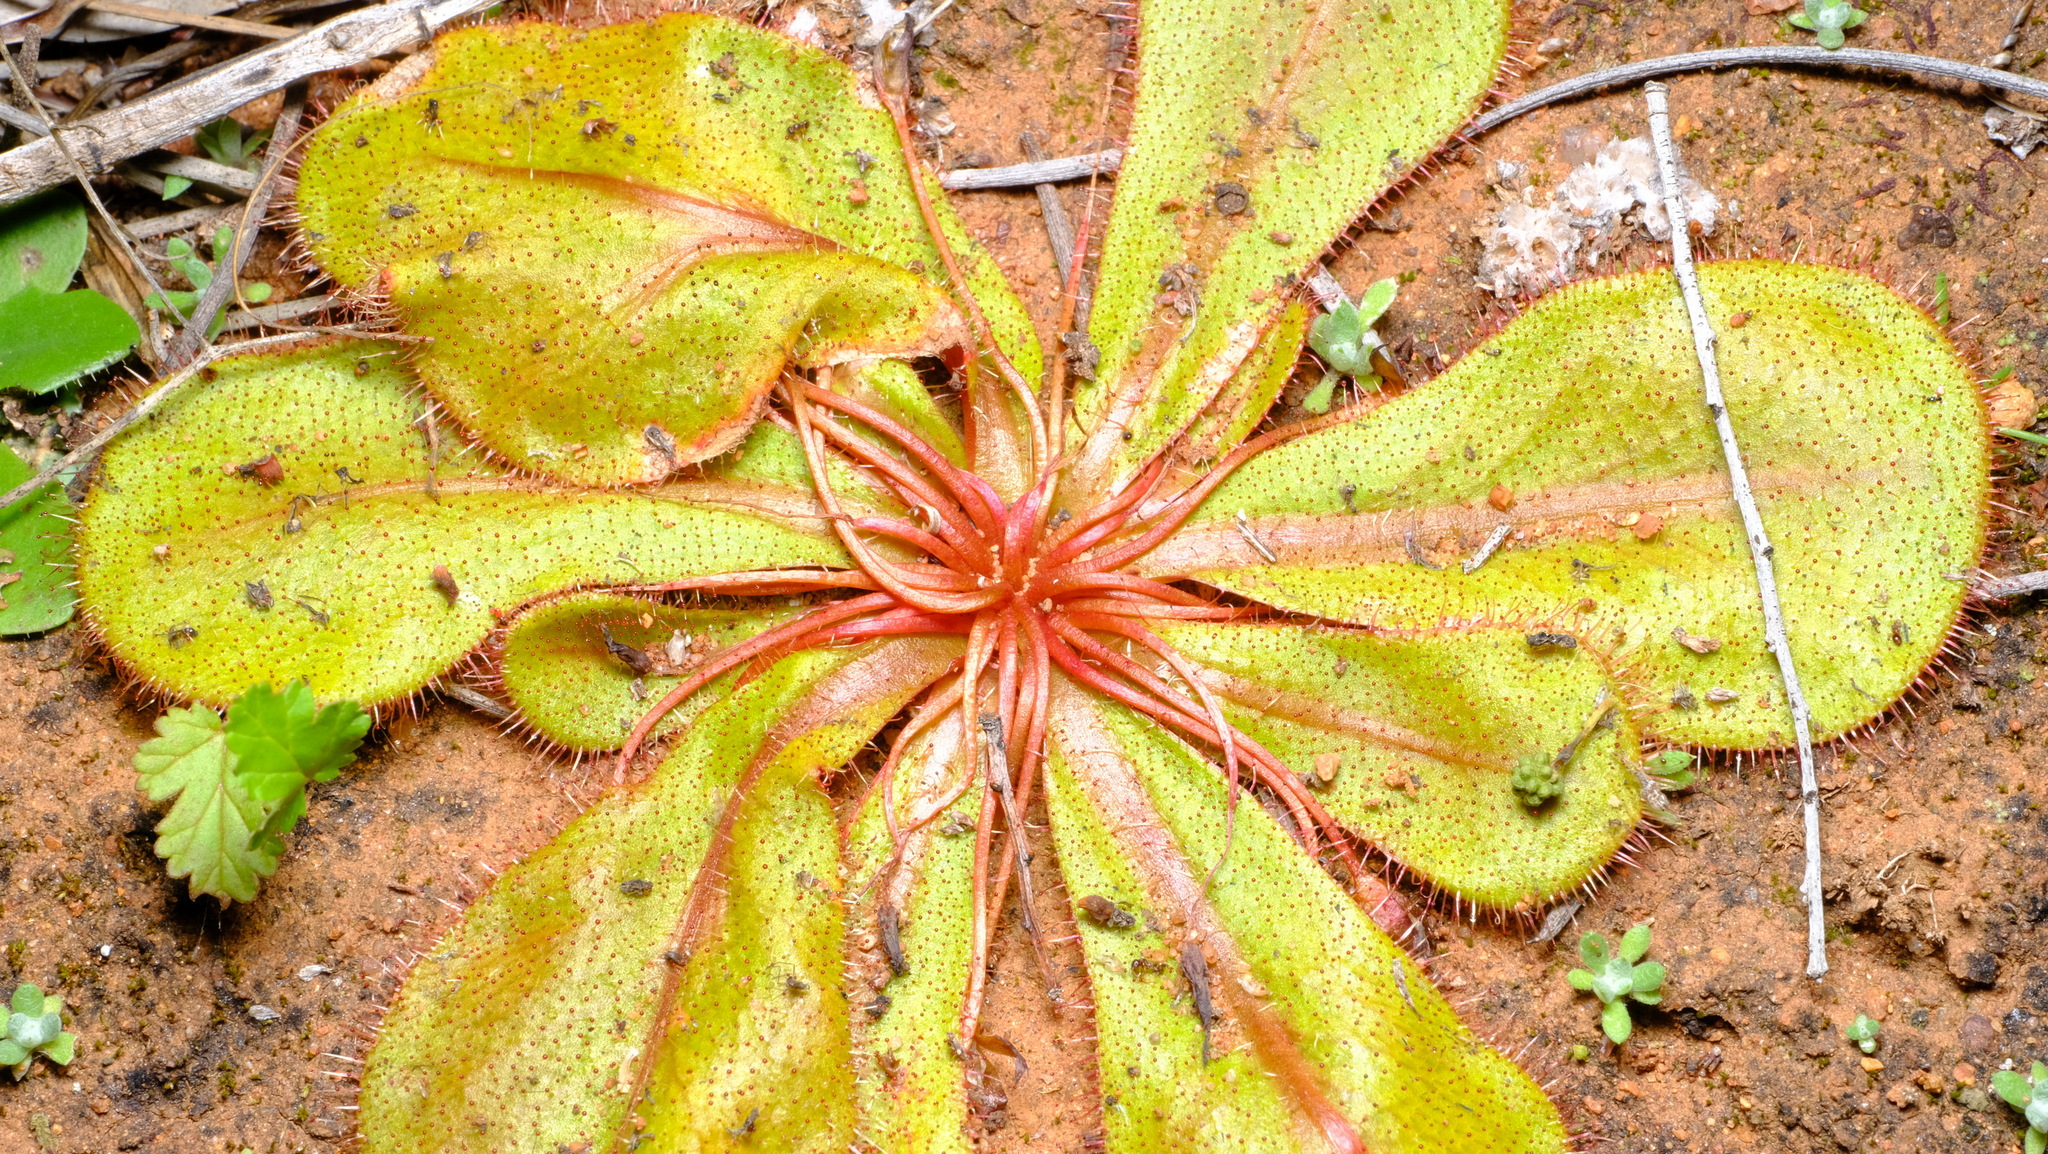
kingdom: Plantae
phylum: Tracheophyta
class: Magnoliopsida
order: Caryophyllales
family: Droseraceae
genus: Drosera
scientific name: Drosera bulbosa
